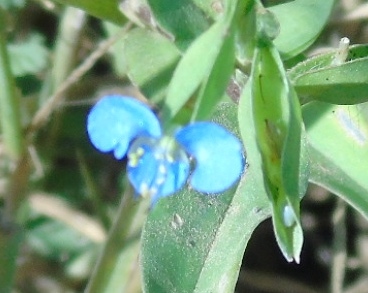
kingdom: Plantae
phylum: Tracheophyta
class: Liliopsida
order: Commelinales
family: Commelinaceae
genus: Commelina
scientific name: Commelina
